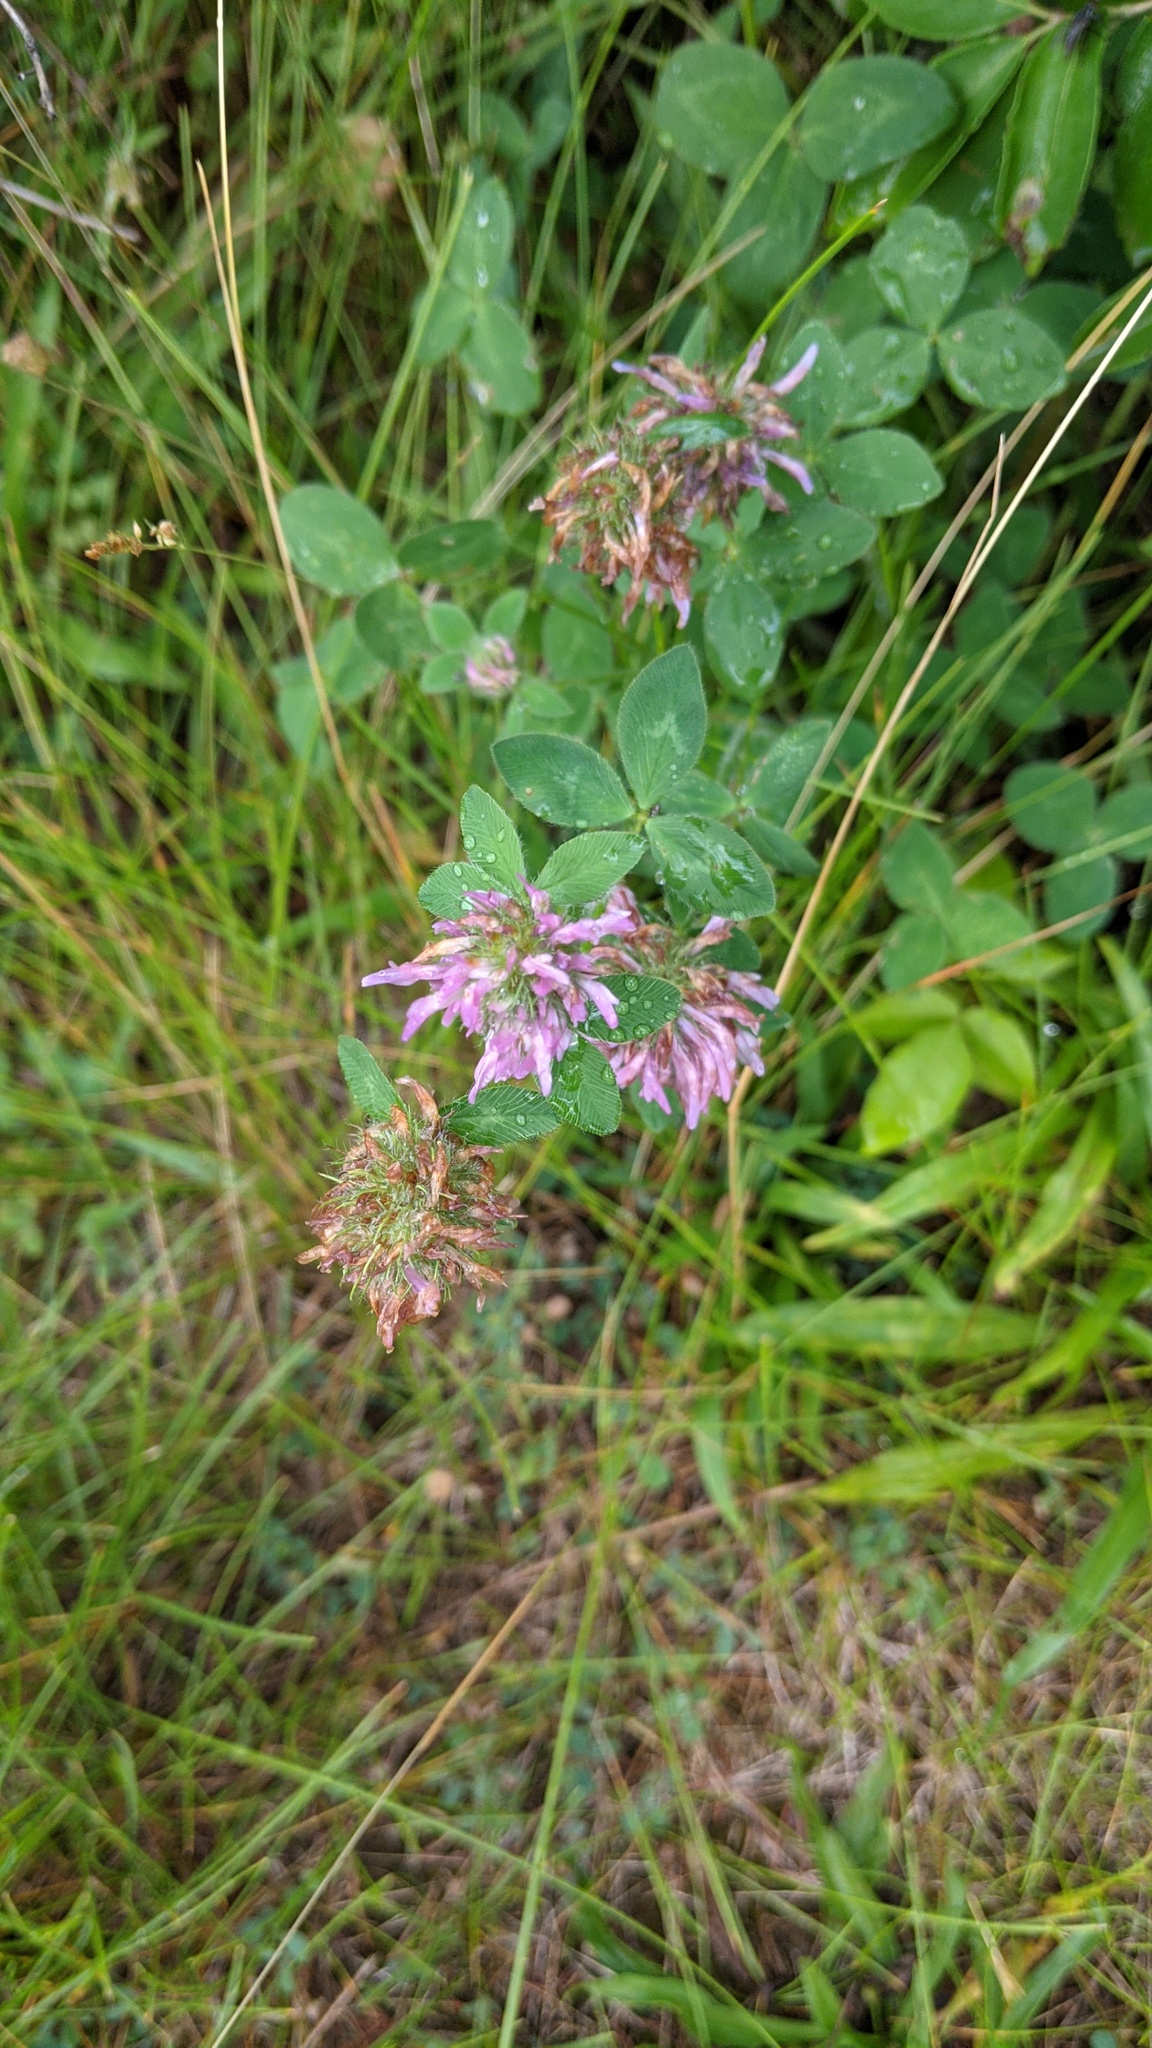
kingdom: Plantae
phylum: Tracheophyta
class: Magnoliopsida
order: Fabales
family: Fabaceae
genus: Trifolium
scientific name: Trifolium pratense
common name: Red clover
